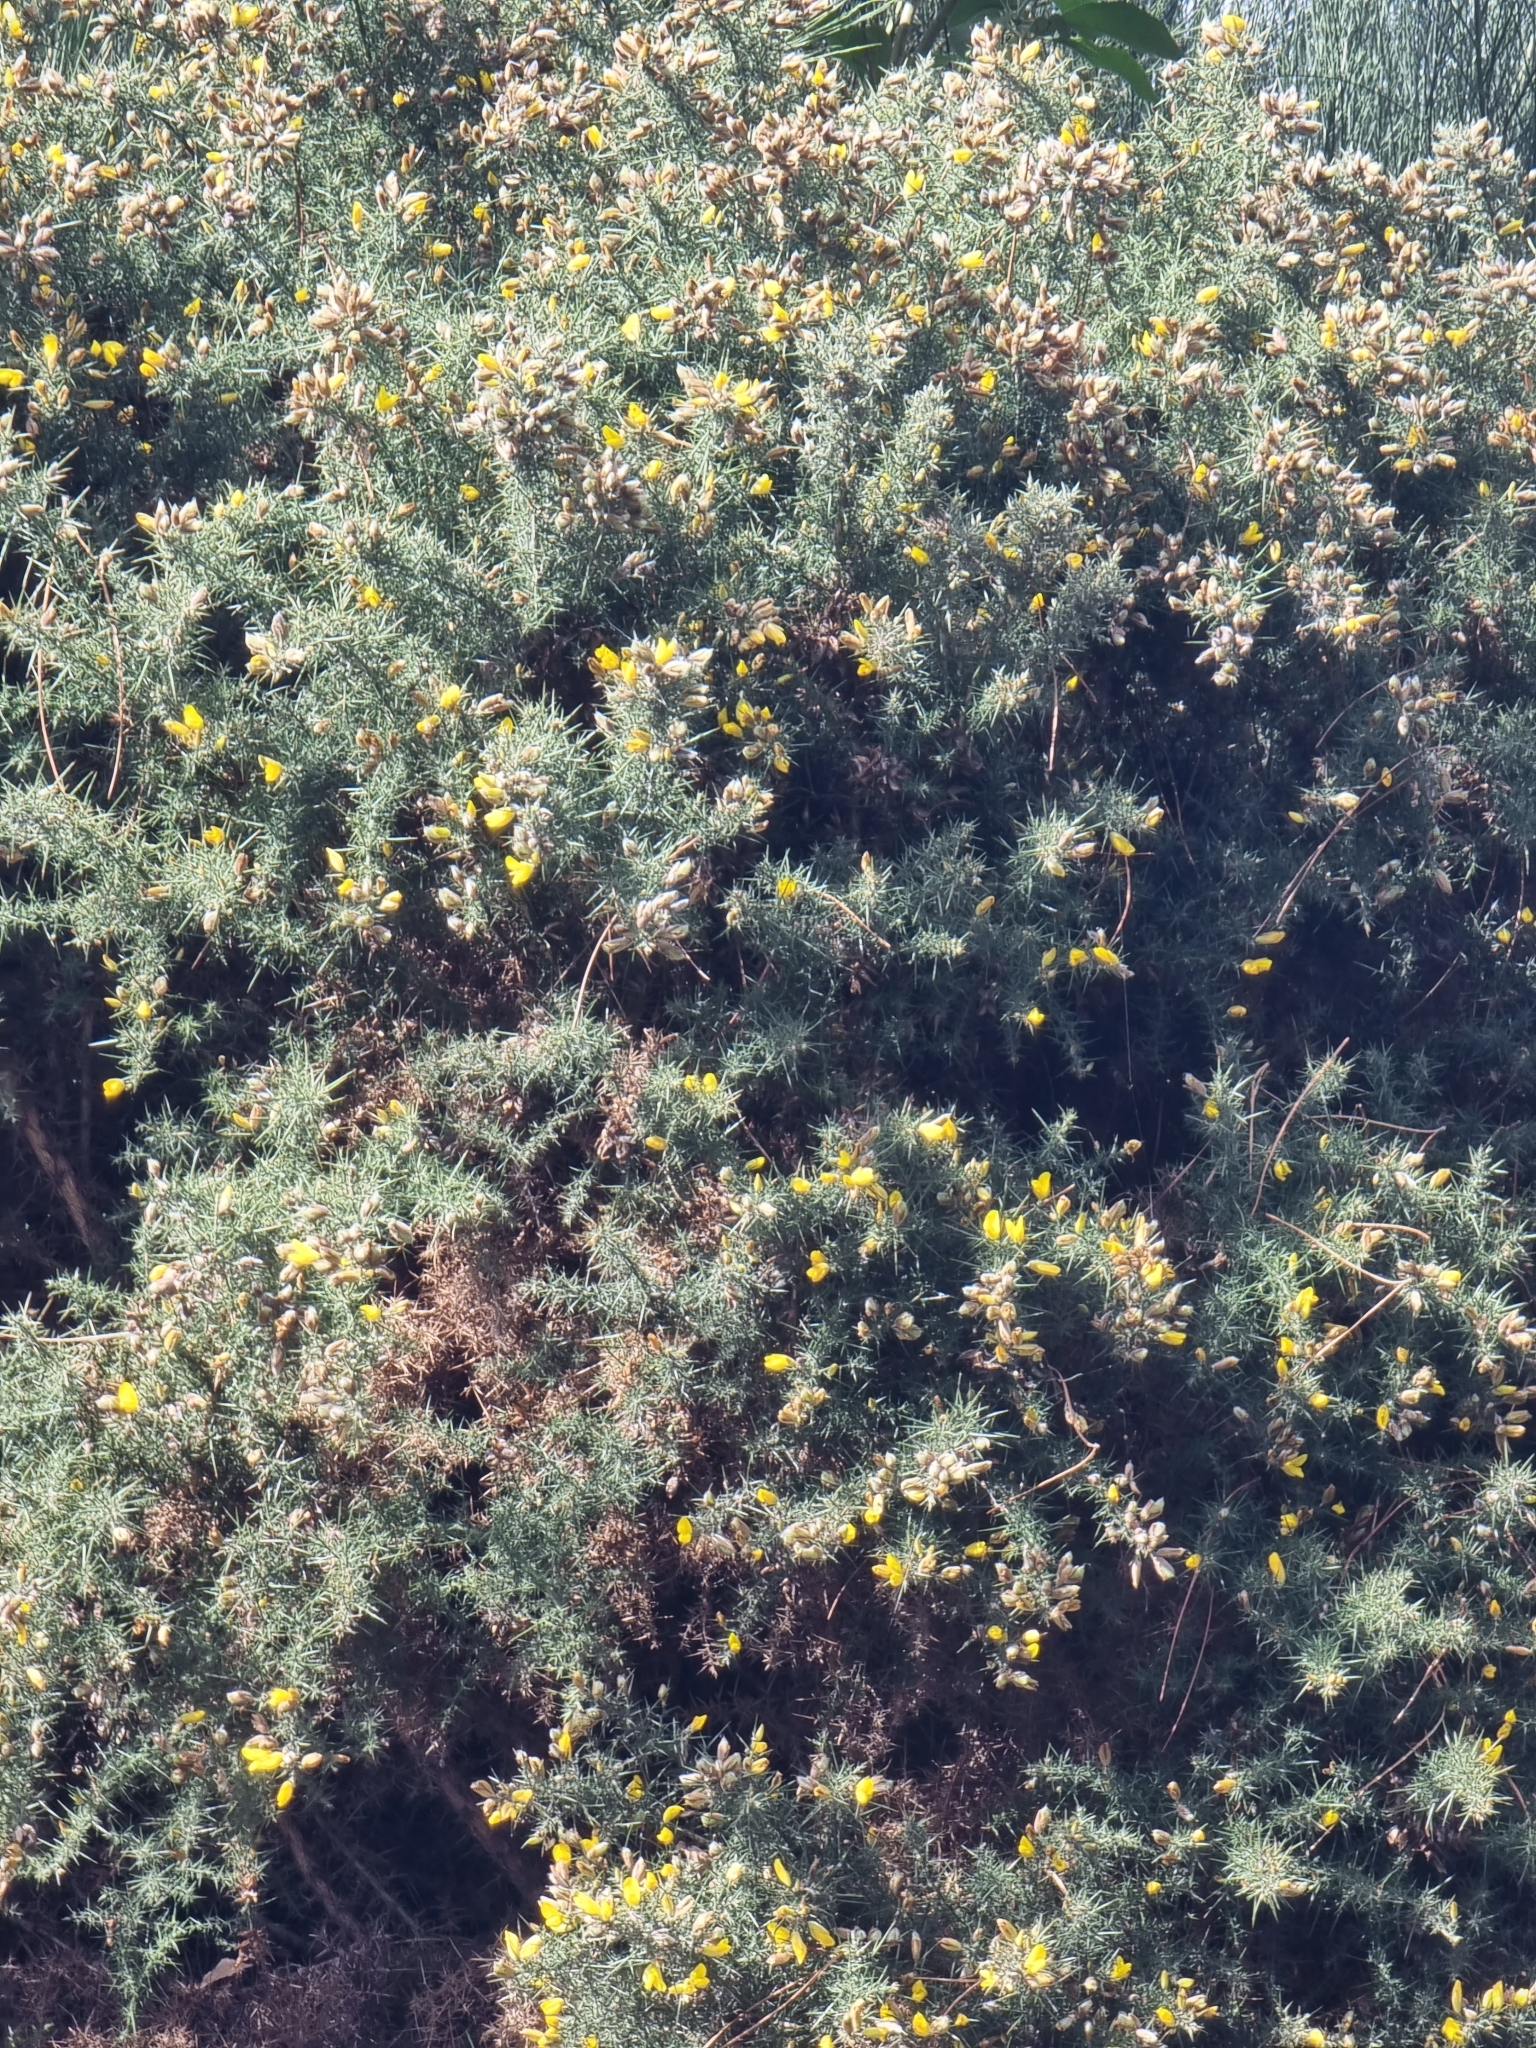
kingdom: Plantae
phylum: Tracheophyta
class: Magnoliopsida
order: Fabales
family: Fabaceae
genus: Ulex
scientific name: Ulex europaeus
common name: Common gorse
